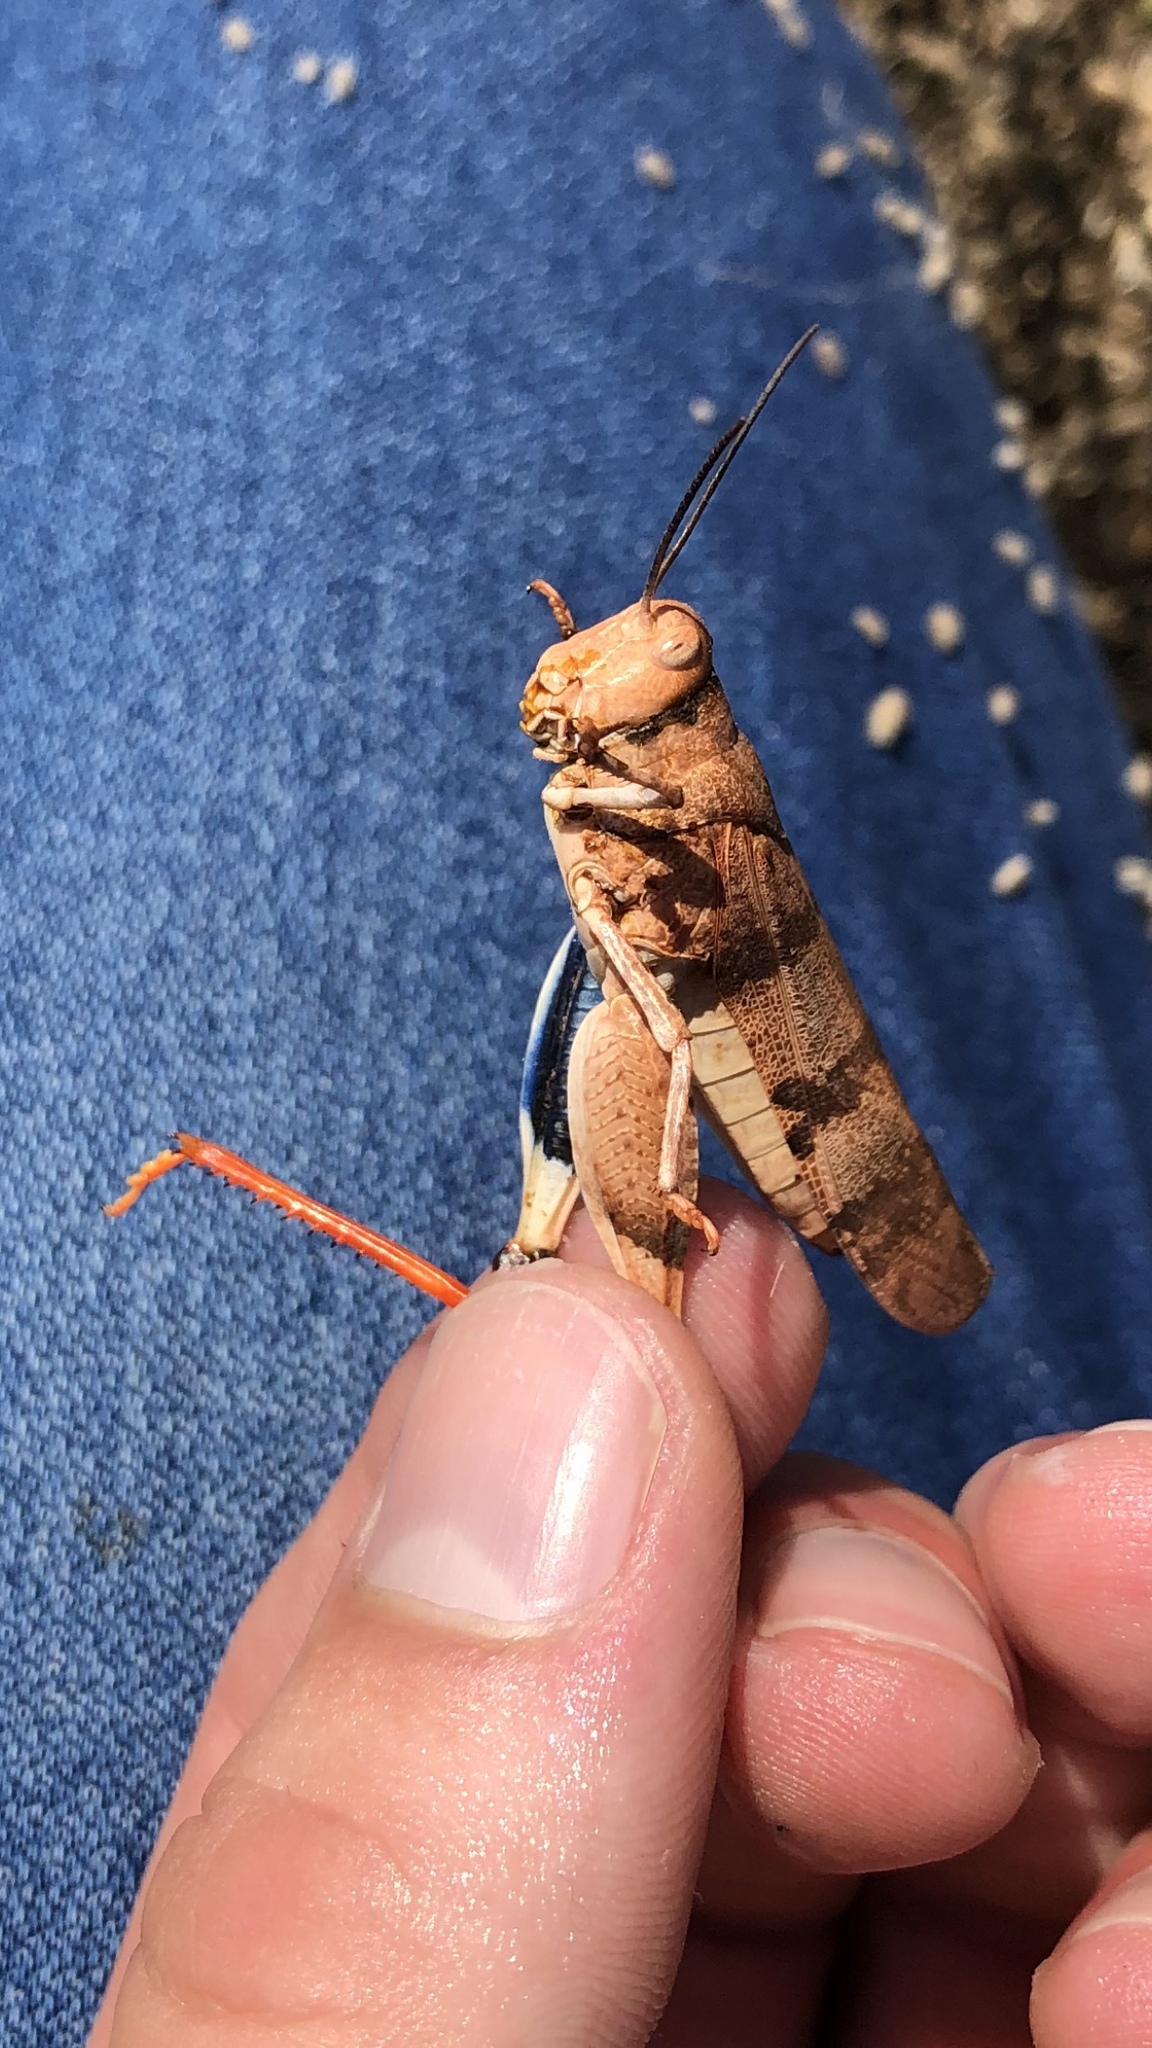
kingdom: Animalia
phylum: Arthropoda
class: Insecta
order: Orthoptera
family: Acrididae
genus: Hadrotettix
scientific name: Hadrotettix trifasciatus
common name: Threebanded grasshopper
